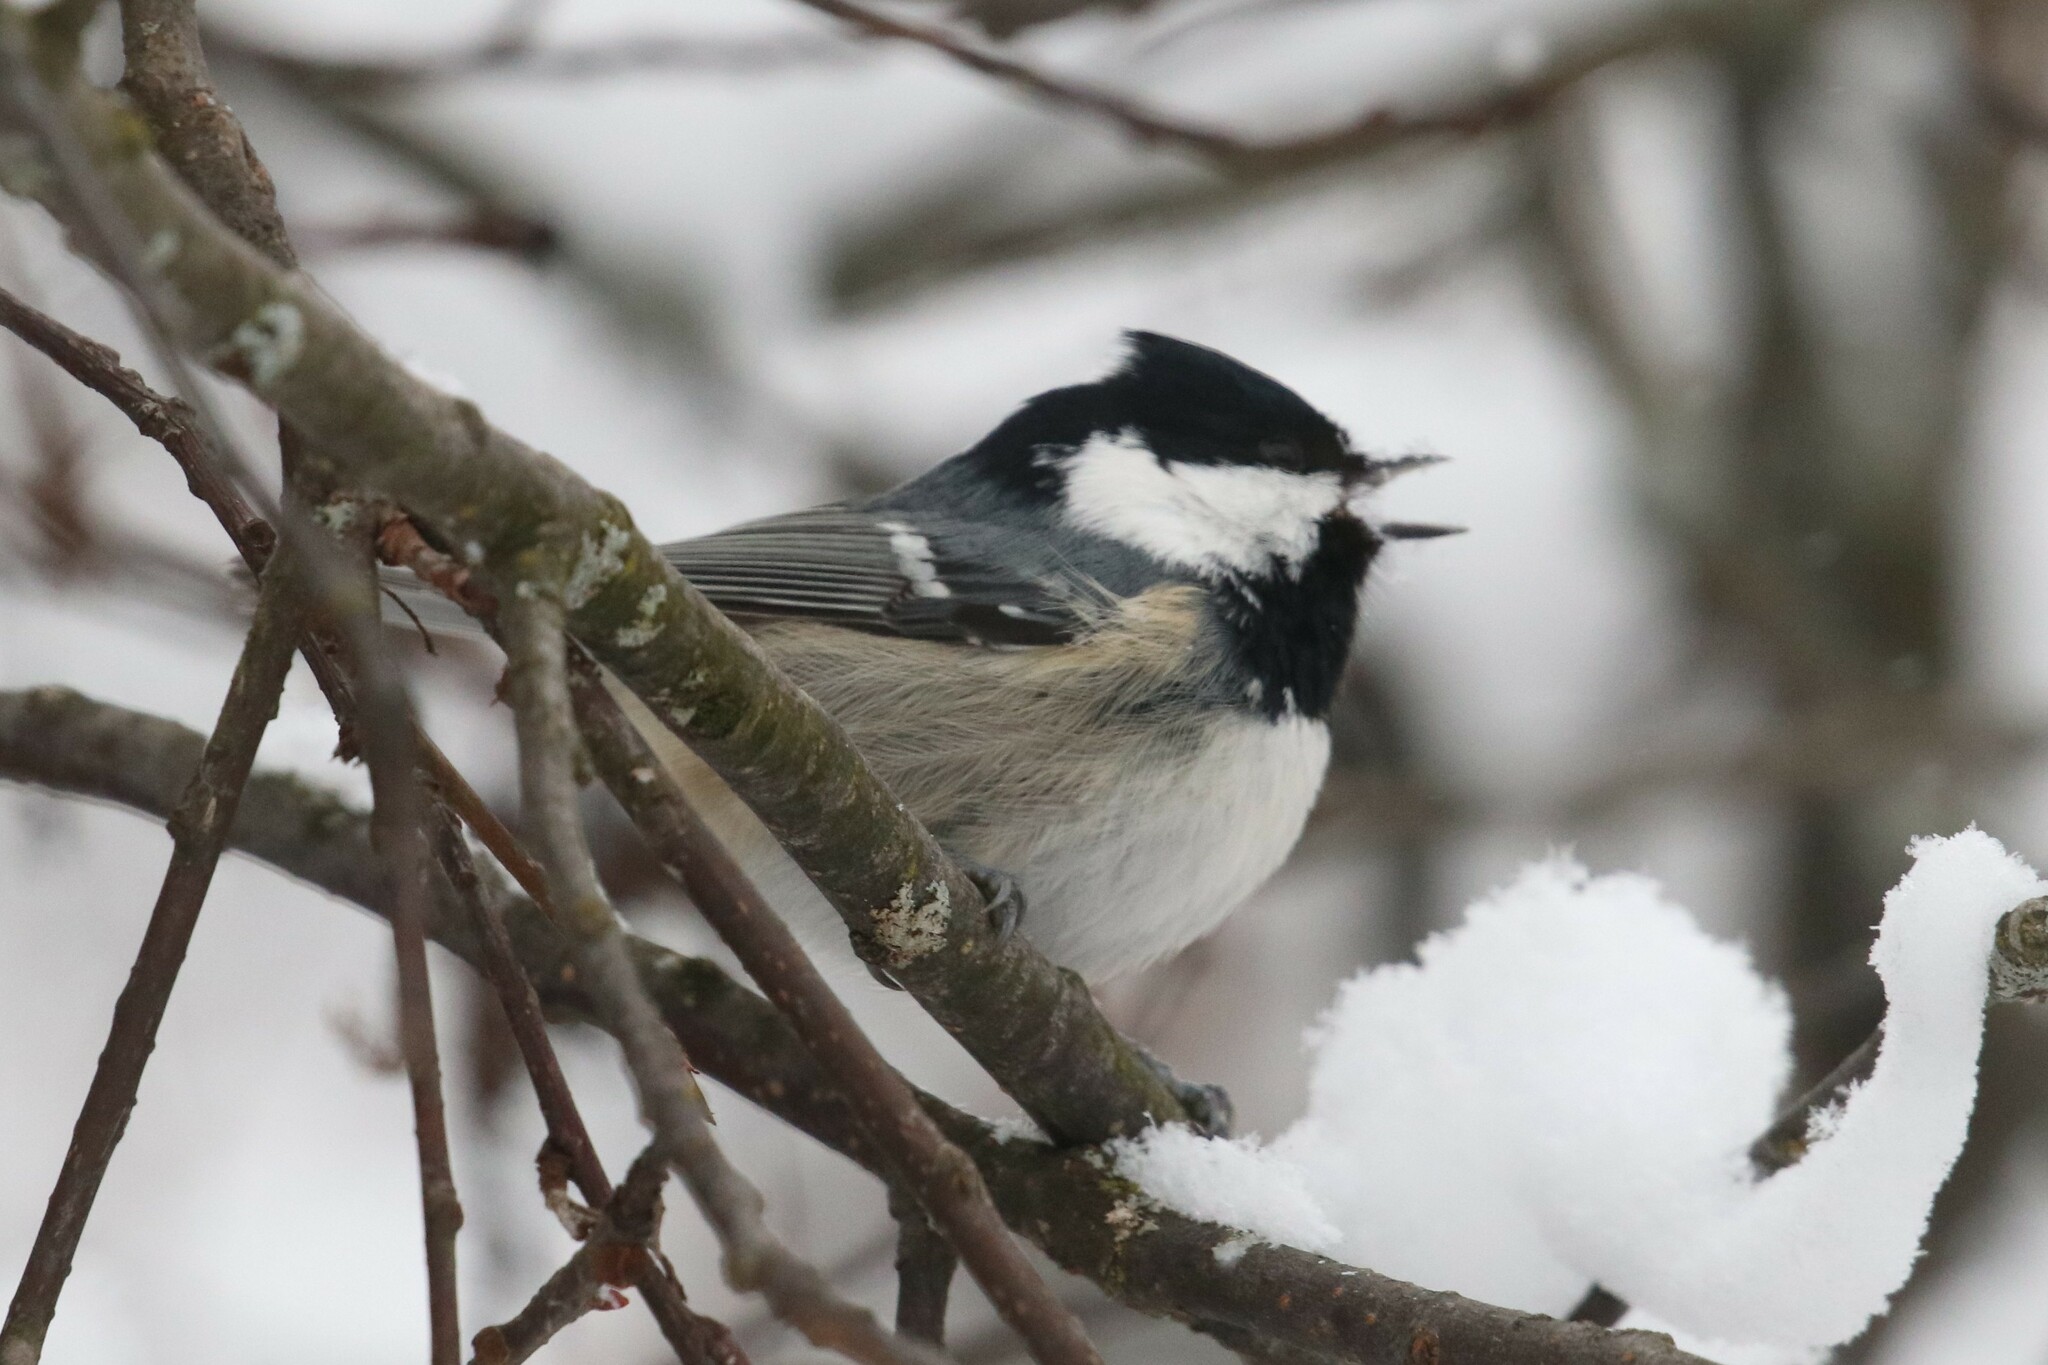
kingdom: Animalia
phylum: Chordata
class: Aves
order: Passeriformes
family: Paridae
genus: Periparus
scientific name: Periparus ater
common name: Coal tit
